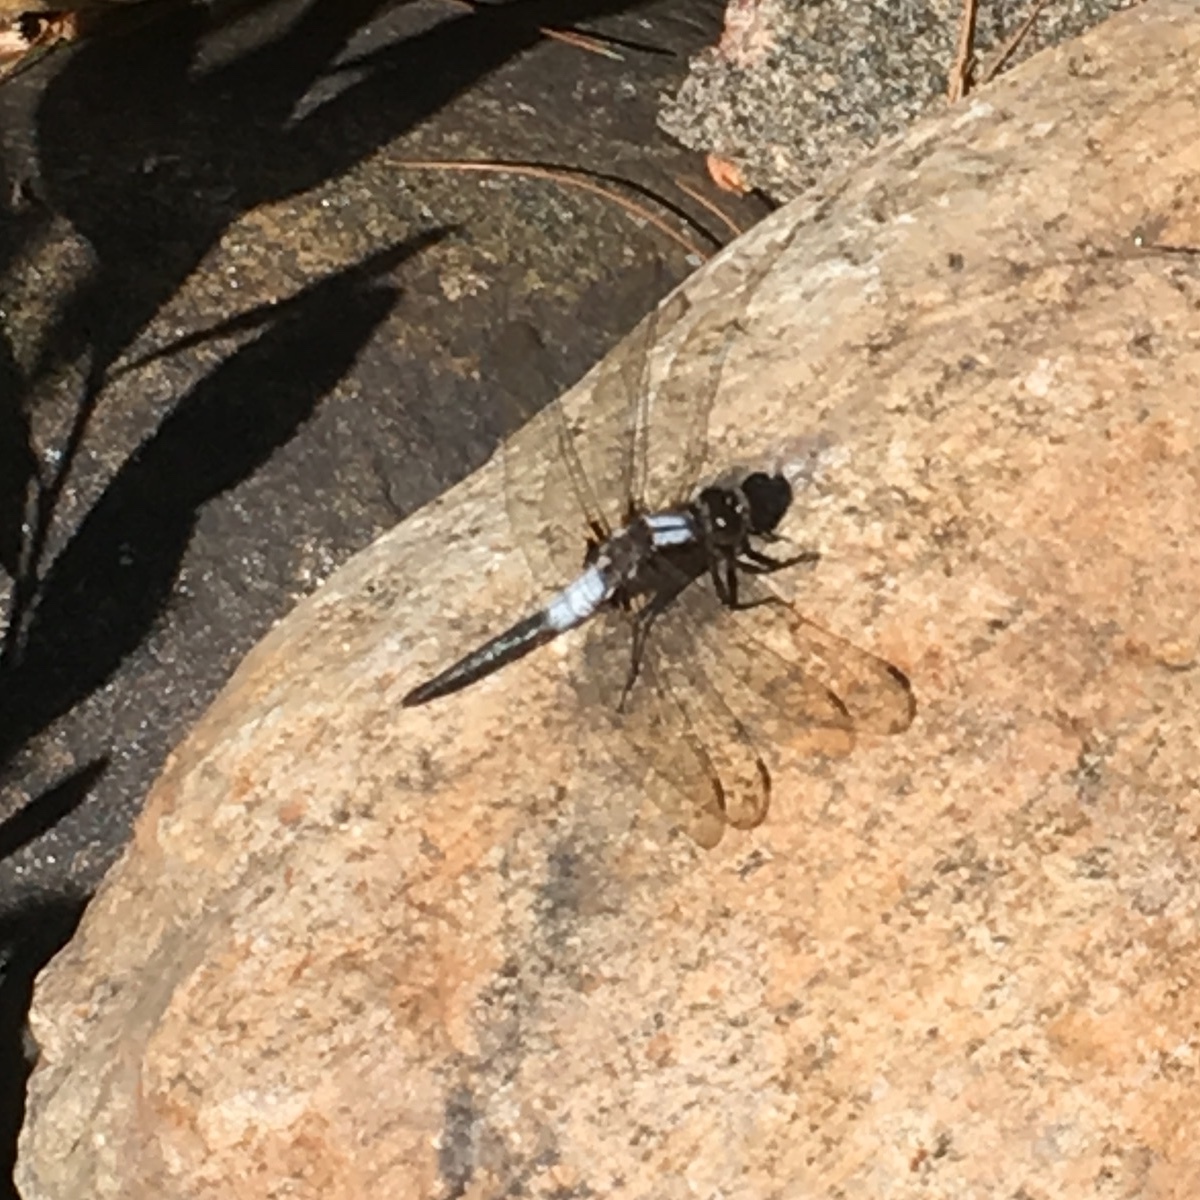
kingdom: Animalia
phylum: Arthropoda
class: Insecta
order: Odonata
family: Libellulidae
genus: Ladona
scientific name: Ladona julia
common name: Chalk-fronted corporal
